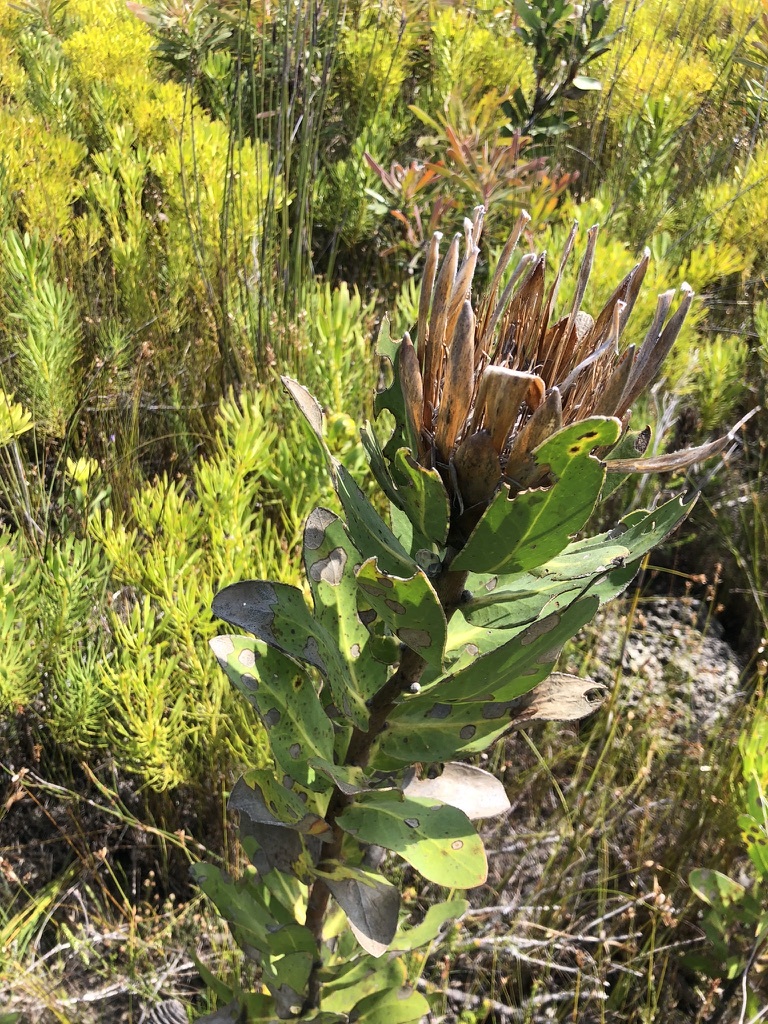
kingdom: Plantae
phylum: Tracheophyta
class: Magnoliopsida
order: Proteales
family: Proteaceae
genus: Protea
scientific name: Protea compacta
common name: Bot river protea
